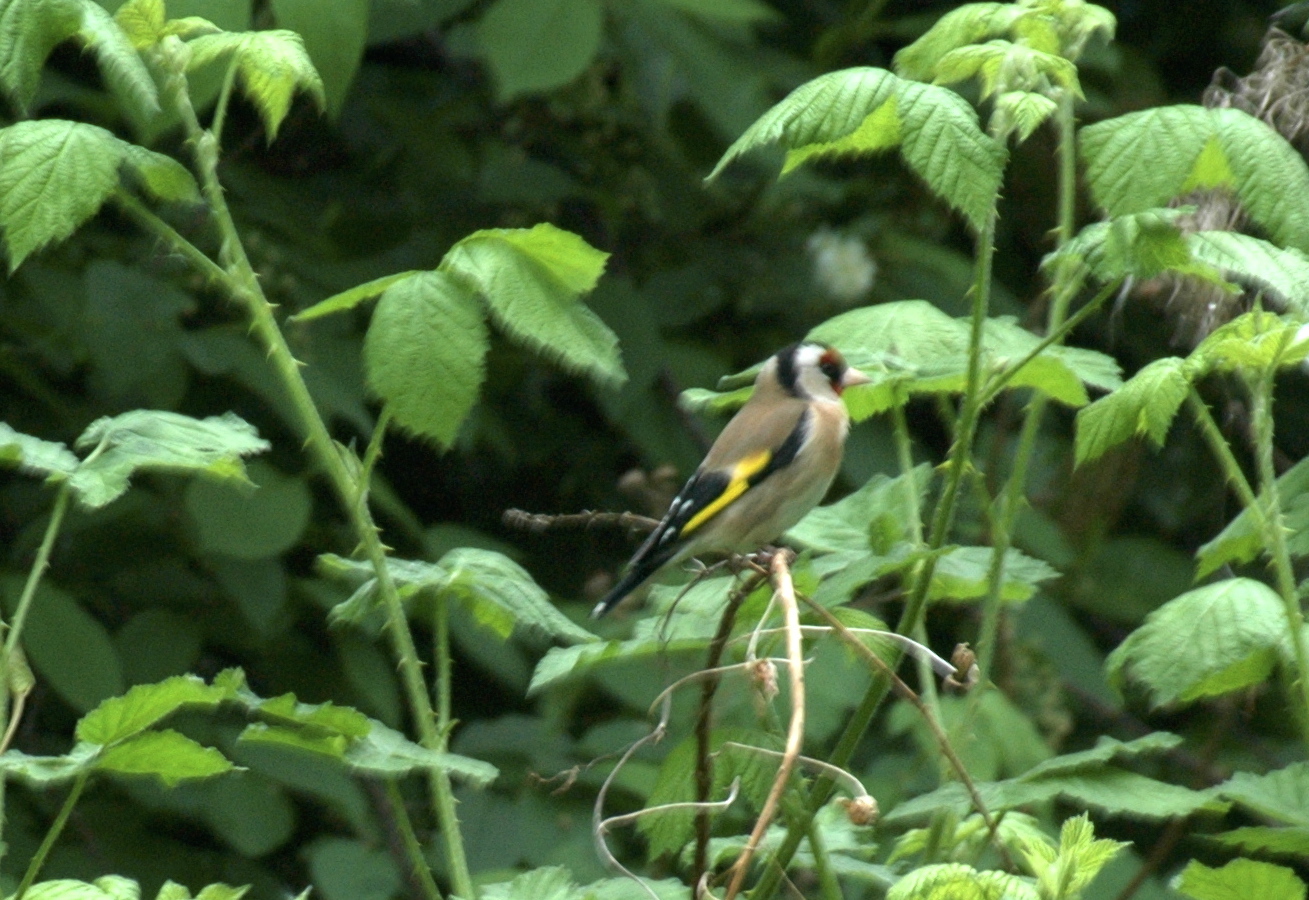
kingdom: Animalia
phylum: Chordata
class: Aves
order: Passeriformes
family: Fringillidae
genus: Carduelis
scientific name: Carduelis carduelis
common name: European goldfinch
